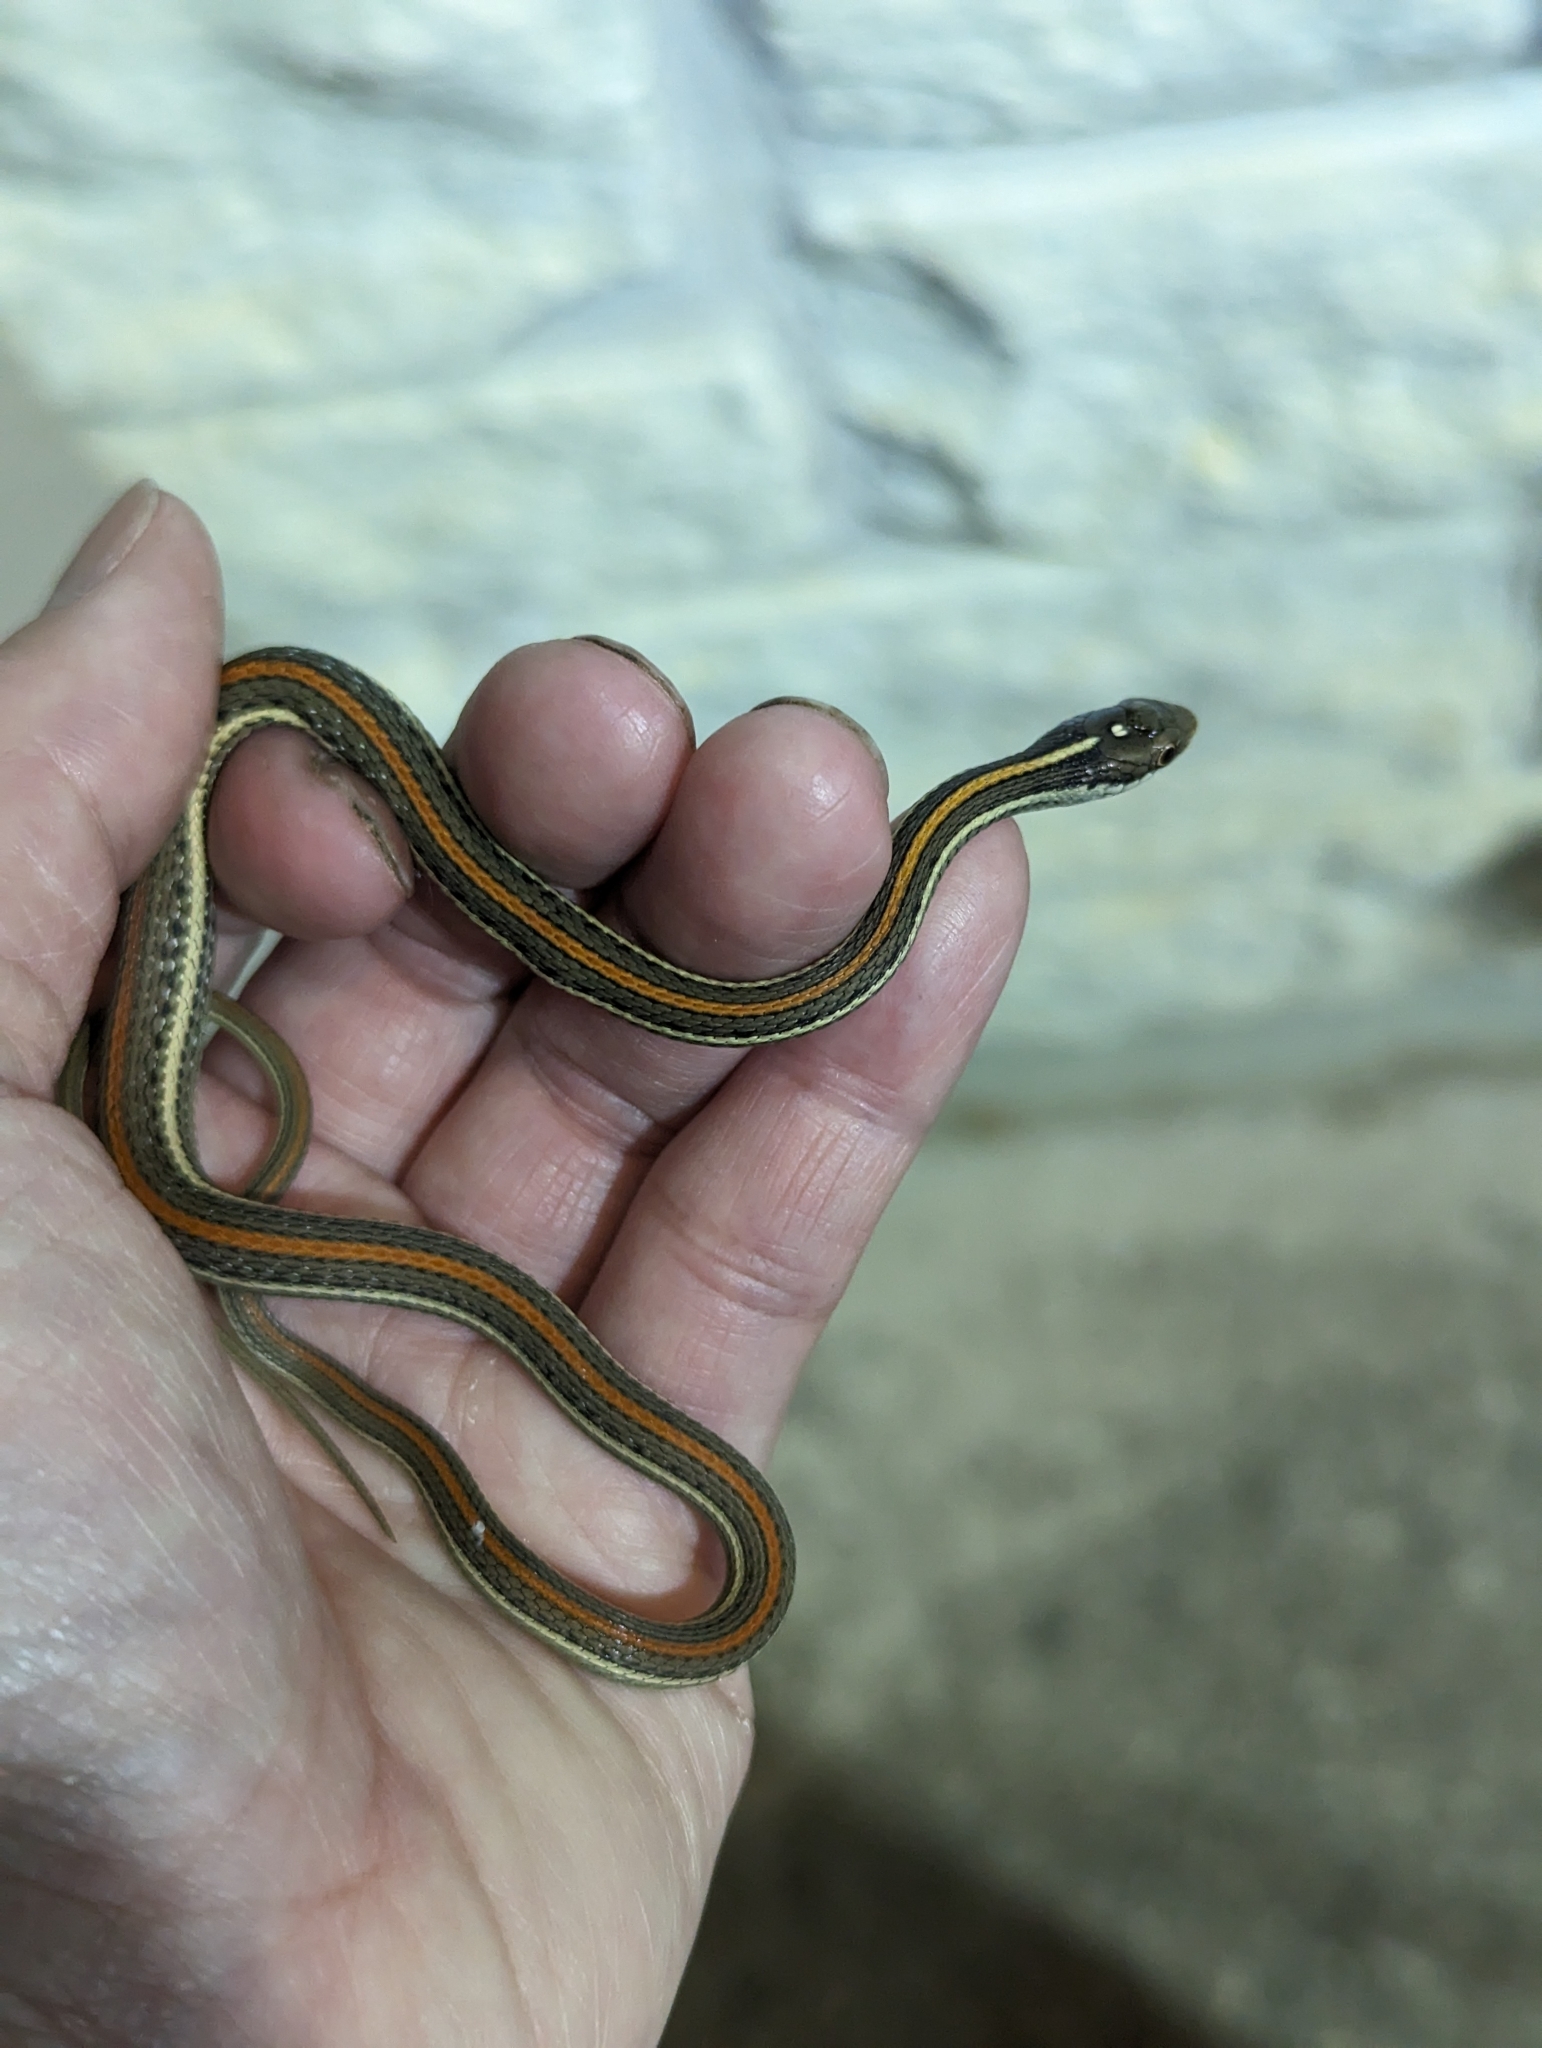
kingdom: Animalia
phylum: Chordata
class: Squamata
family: Colubridae
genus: Thamnophis
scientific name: Thamnophis proximus
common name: Western ribbon snake
